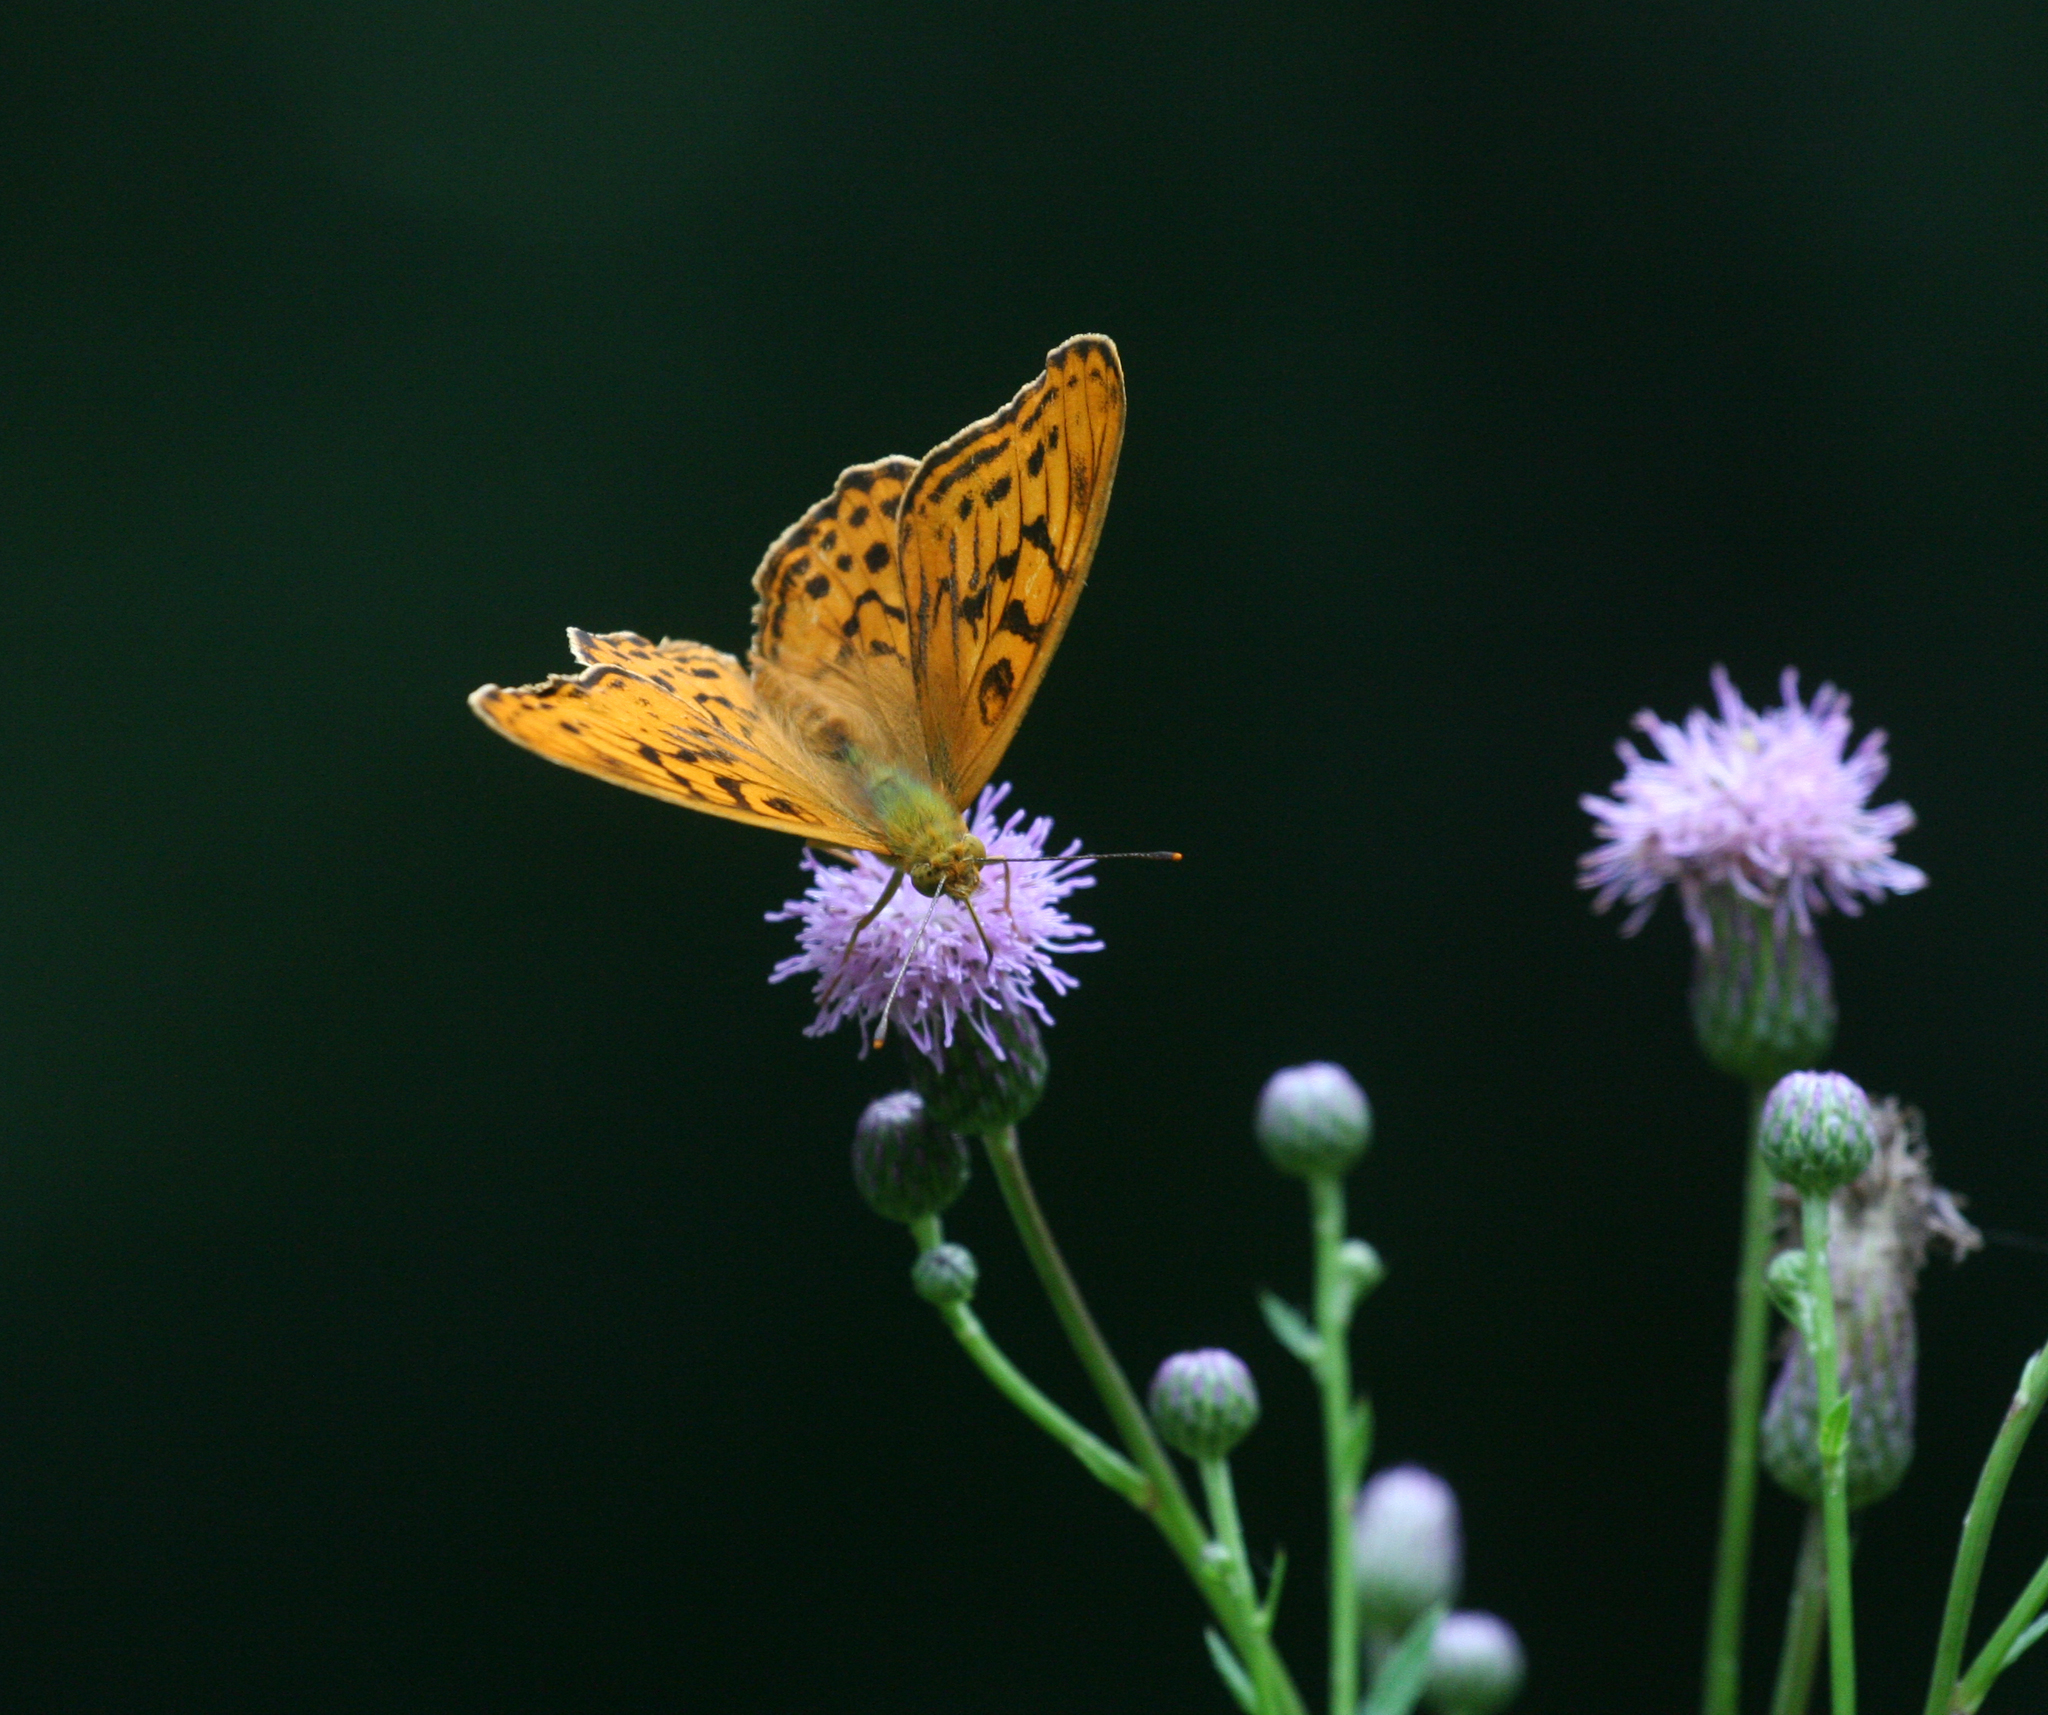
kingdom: Animalia
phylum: Arthropoda
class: Insecta
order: Lepidoptera
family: Nymphalidae
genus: Argyronome
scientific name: Argyronome ruslana
